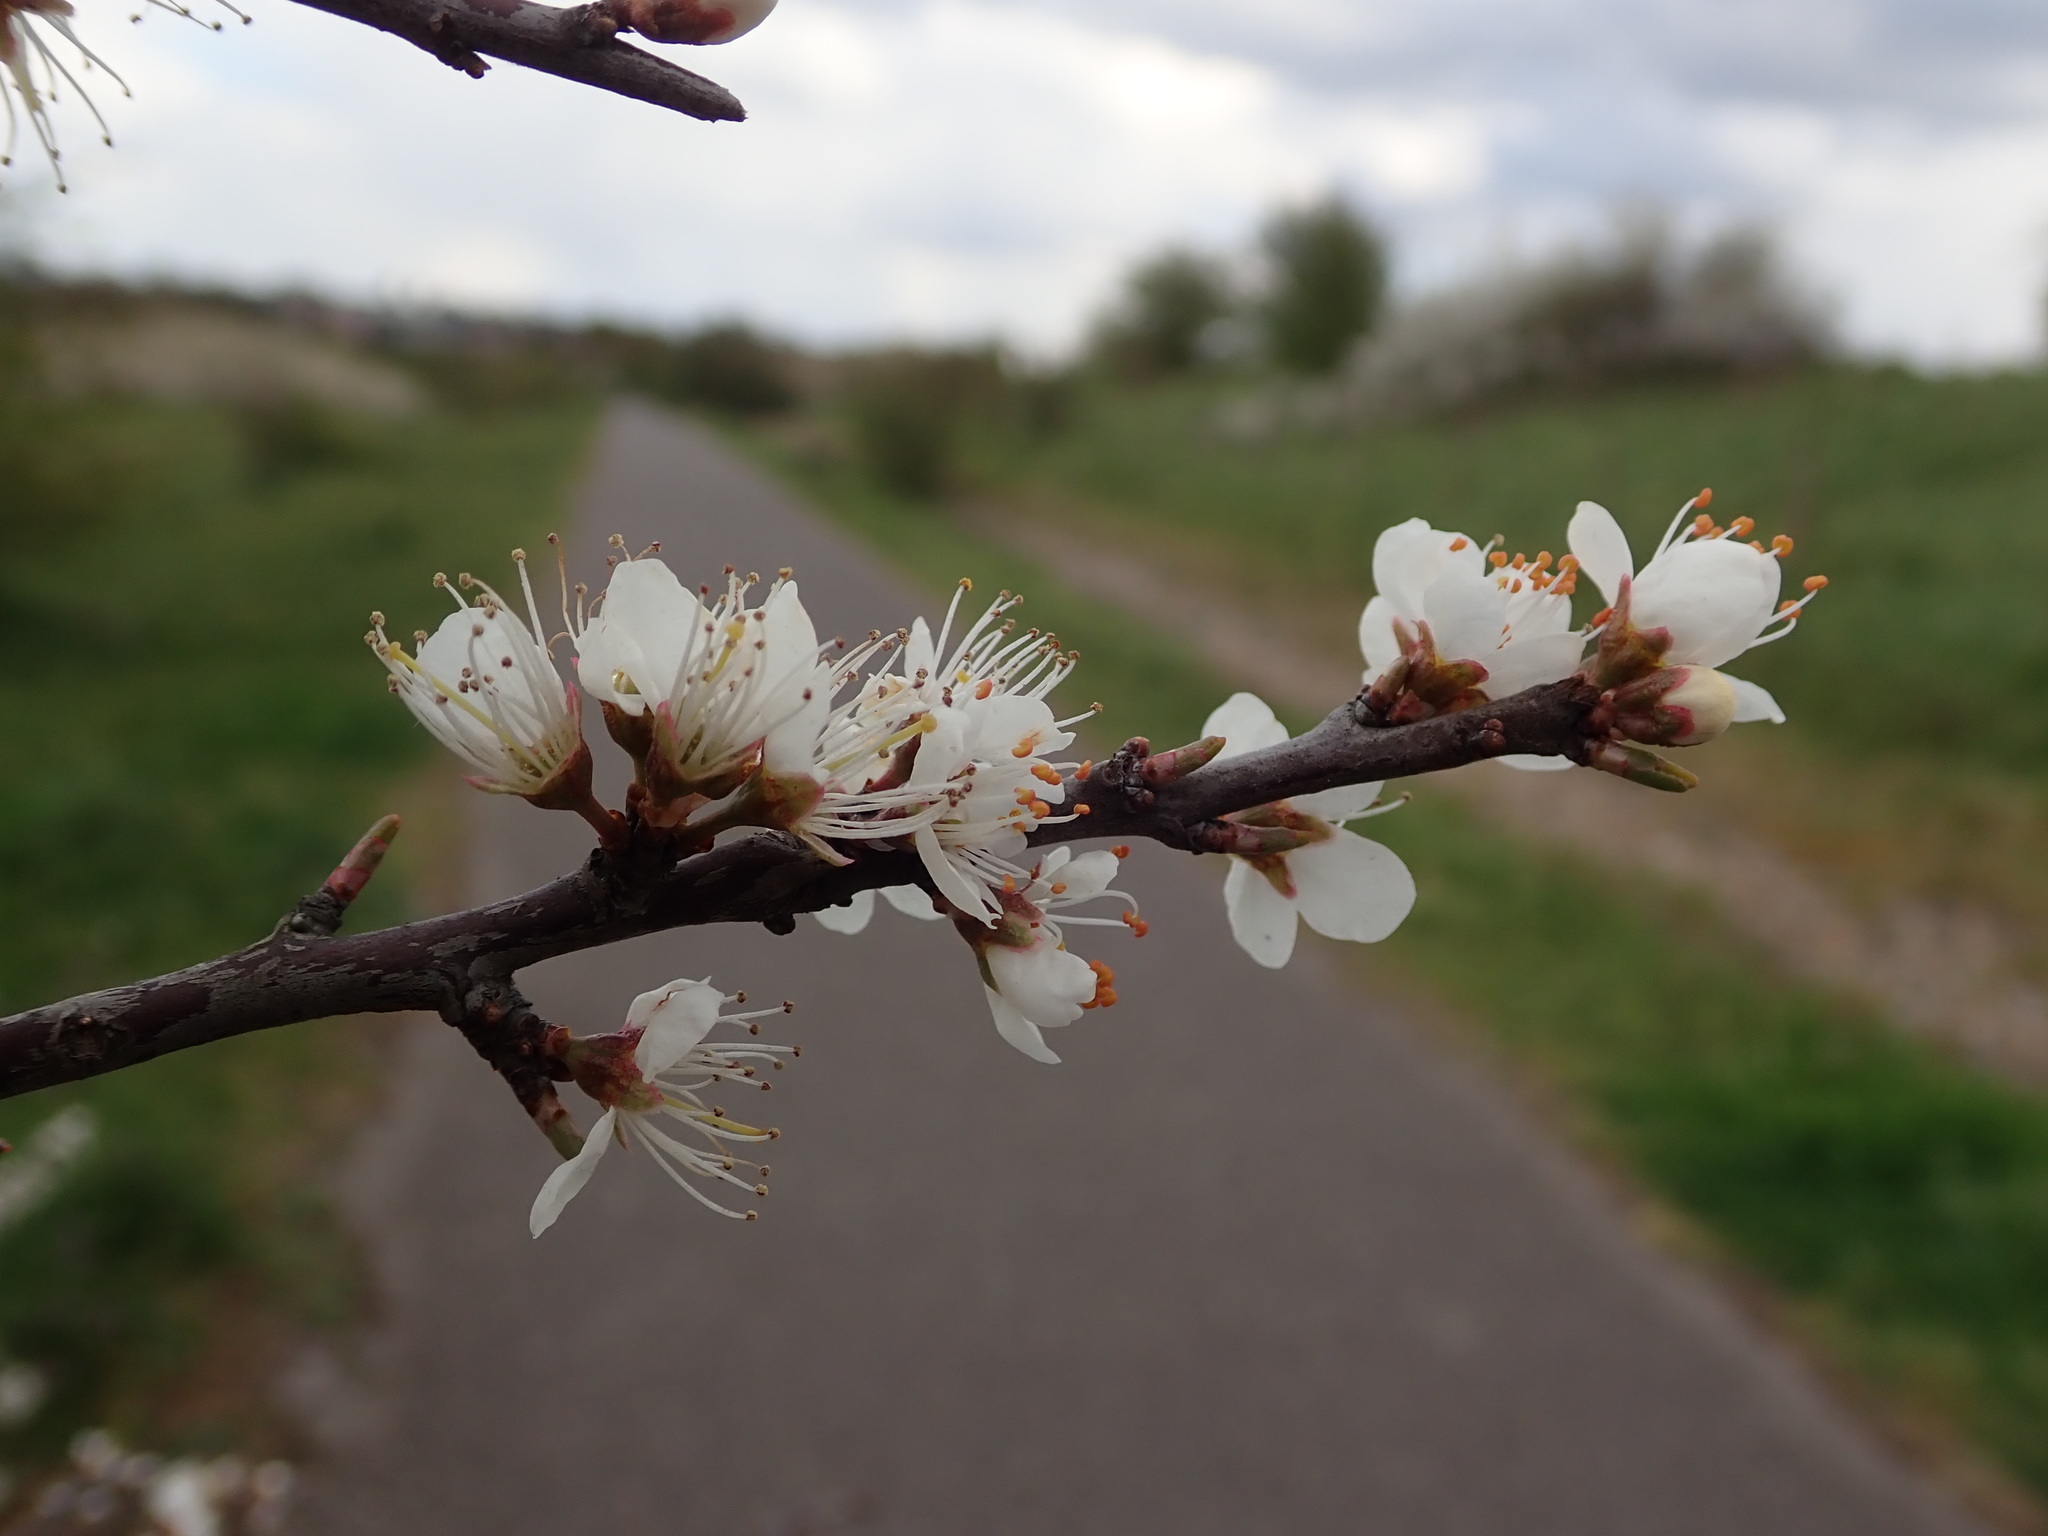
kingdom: Plantae
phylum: Tracheophyta
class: Magnoliopsida
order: Rosales
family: Rosaceae
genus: Prunus
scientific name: Prunus spinosa
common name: Blackthorn
